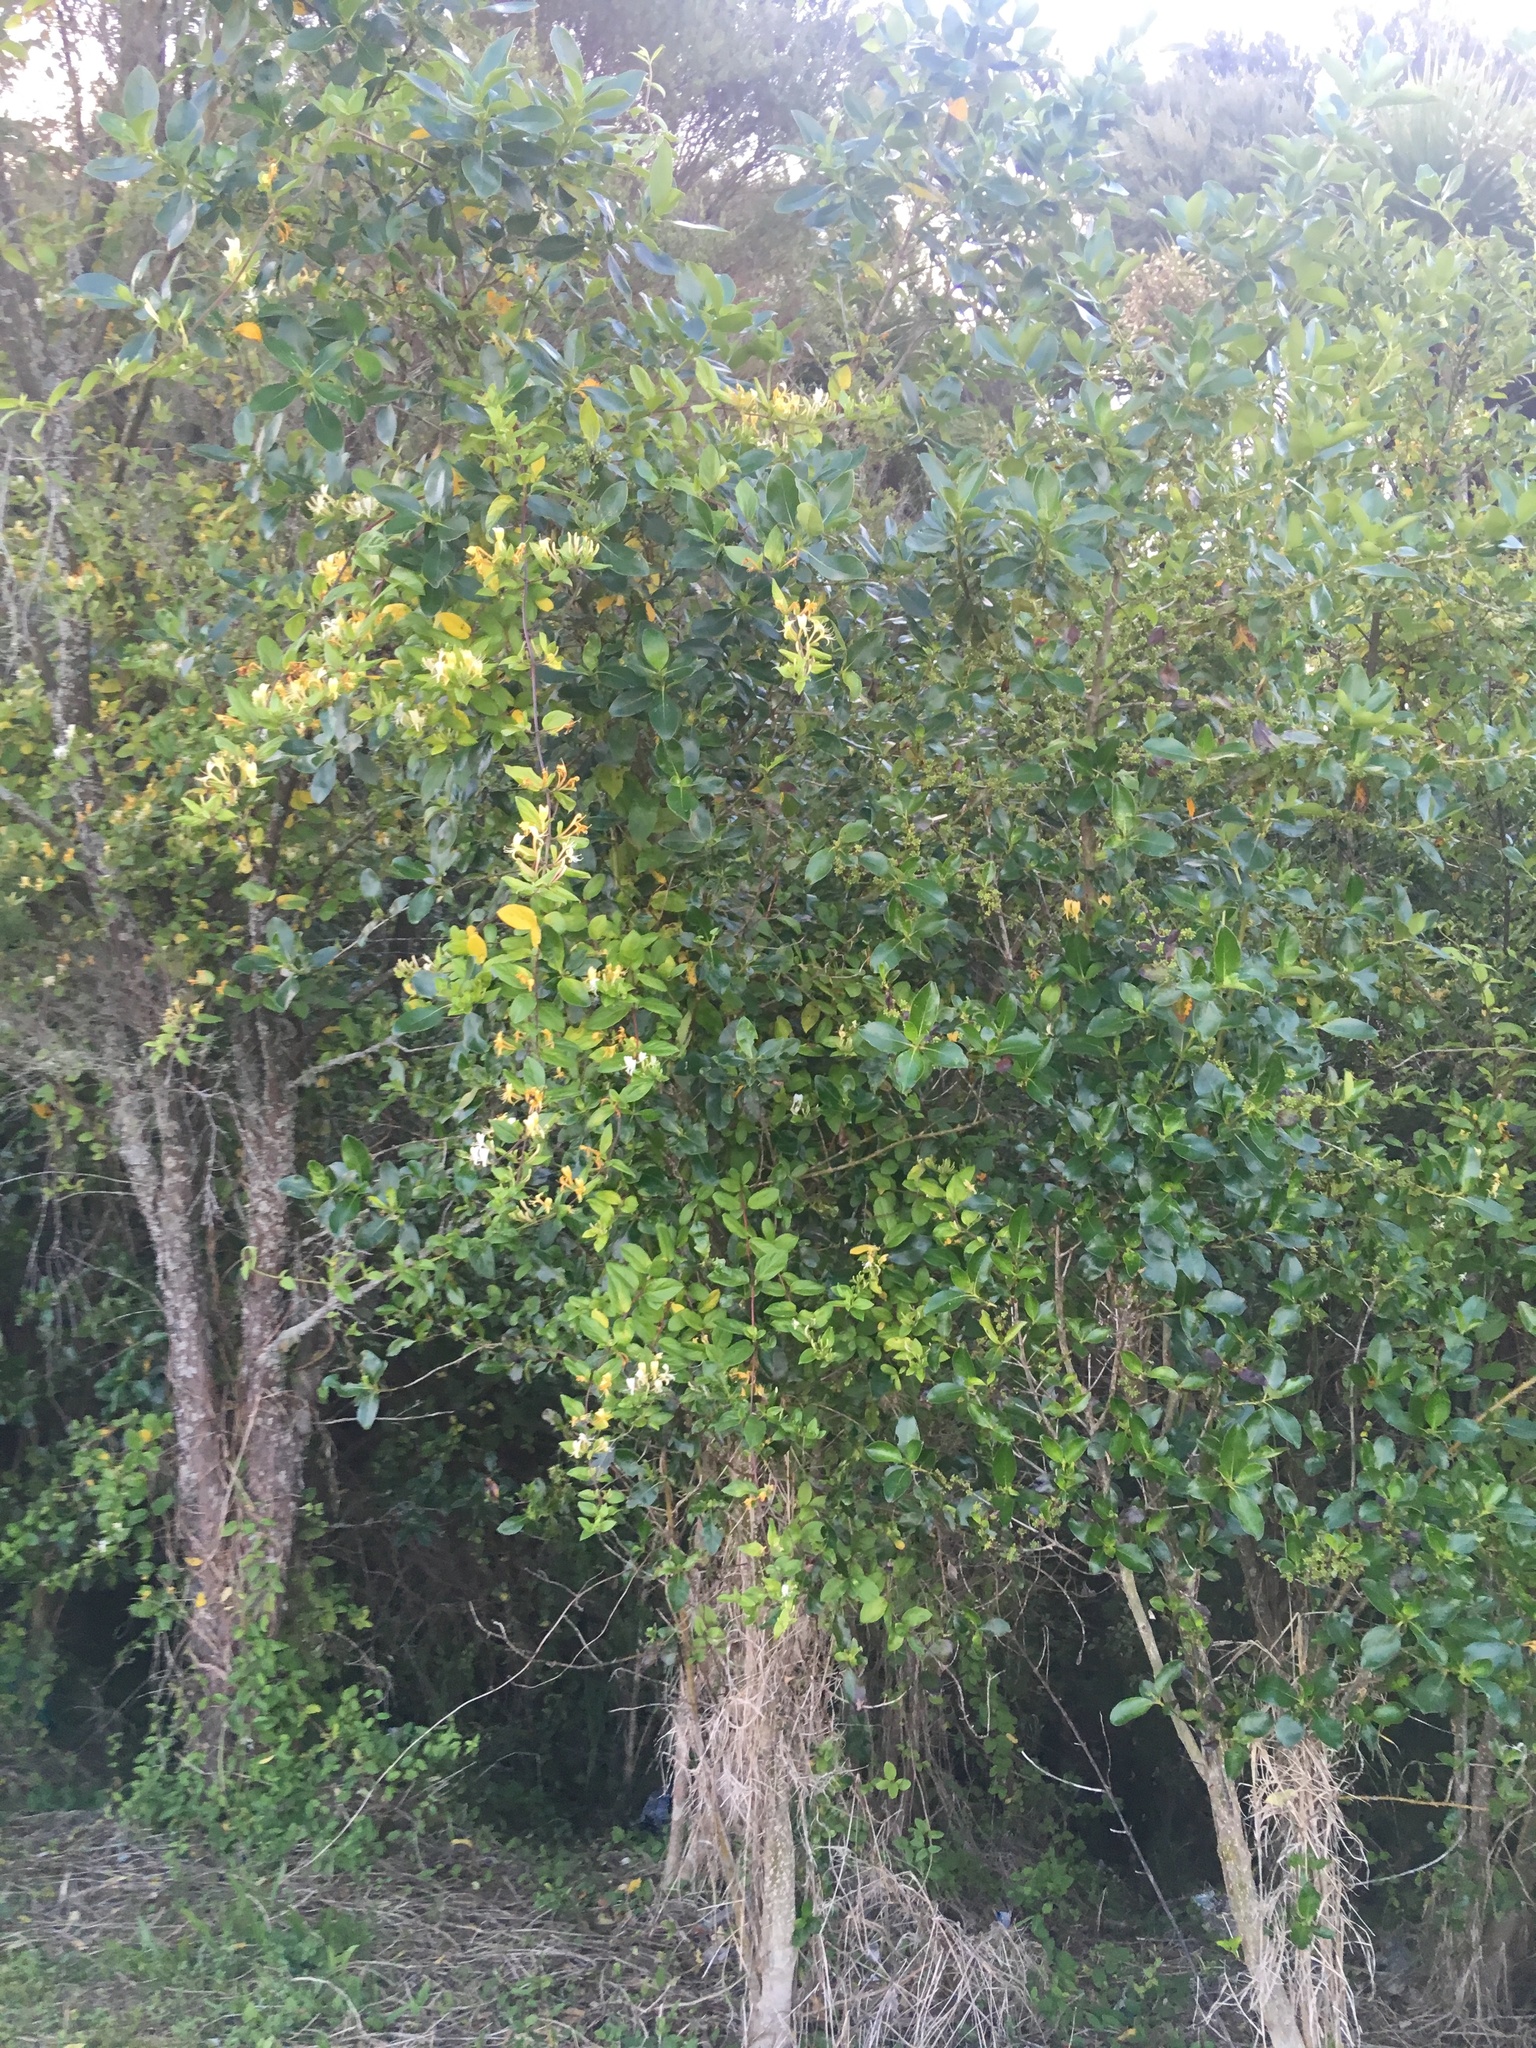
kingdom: Plantae
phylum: Tracheophyta
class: Magnoliopsida
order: Gentianales
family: Rubiaceae
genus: Coprosma
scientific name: Coprosma robusta
